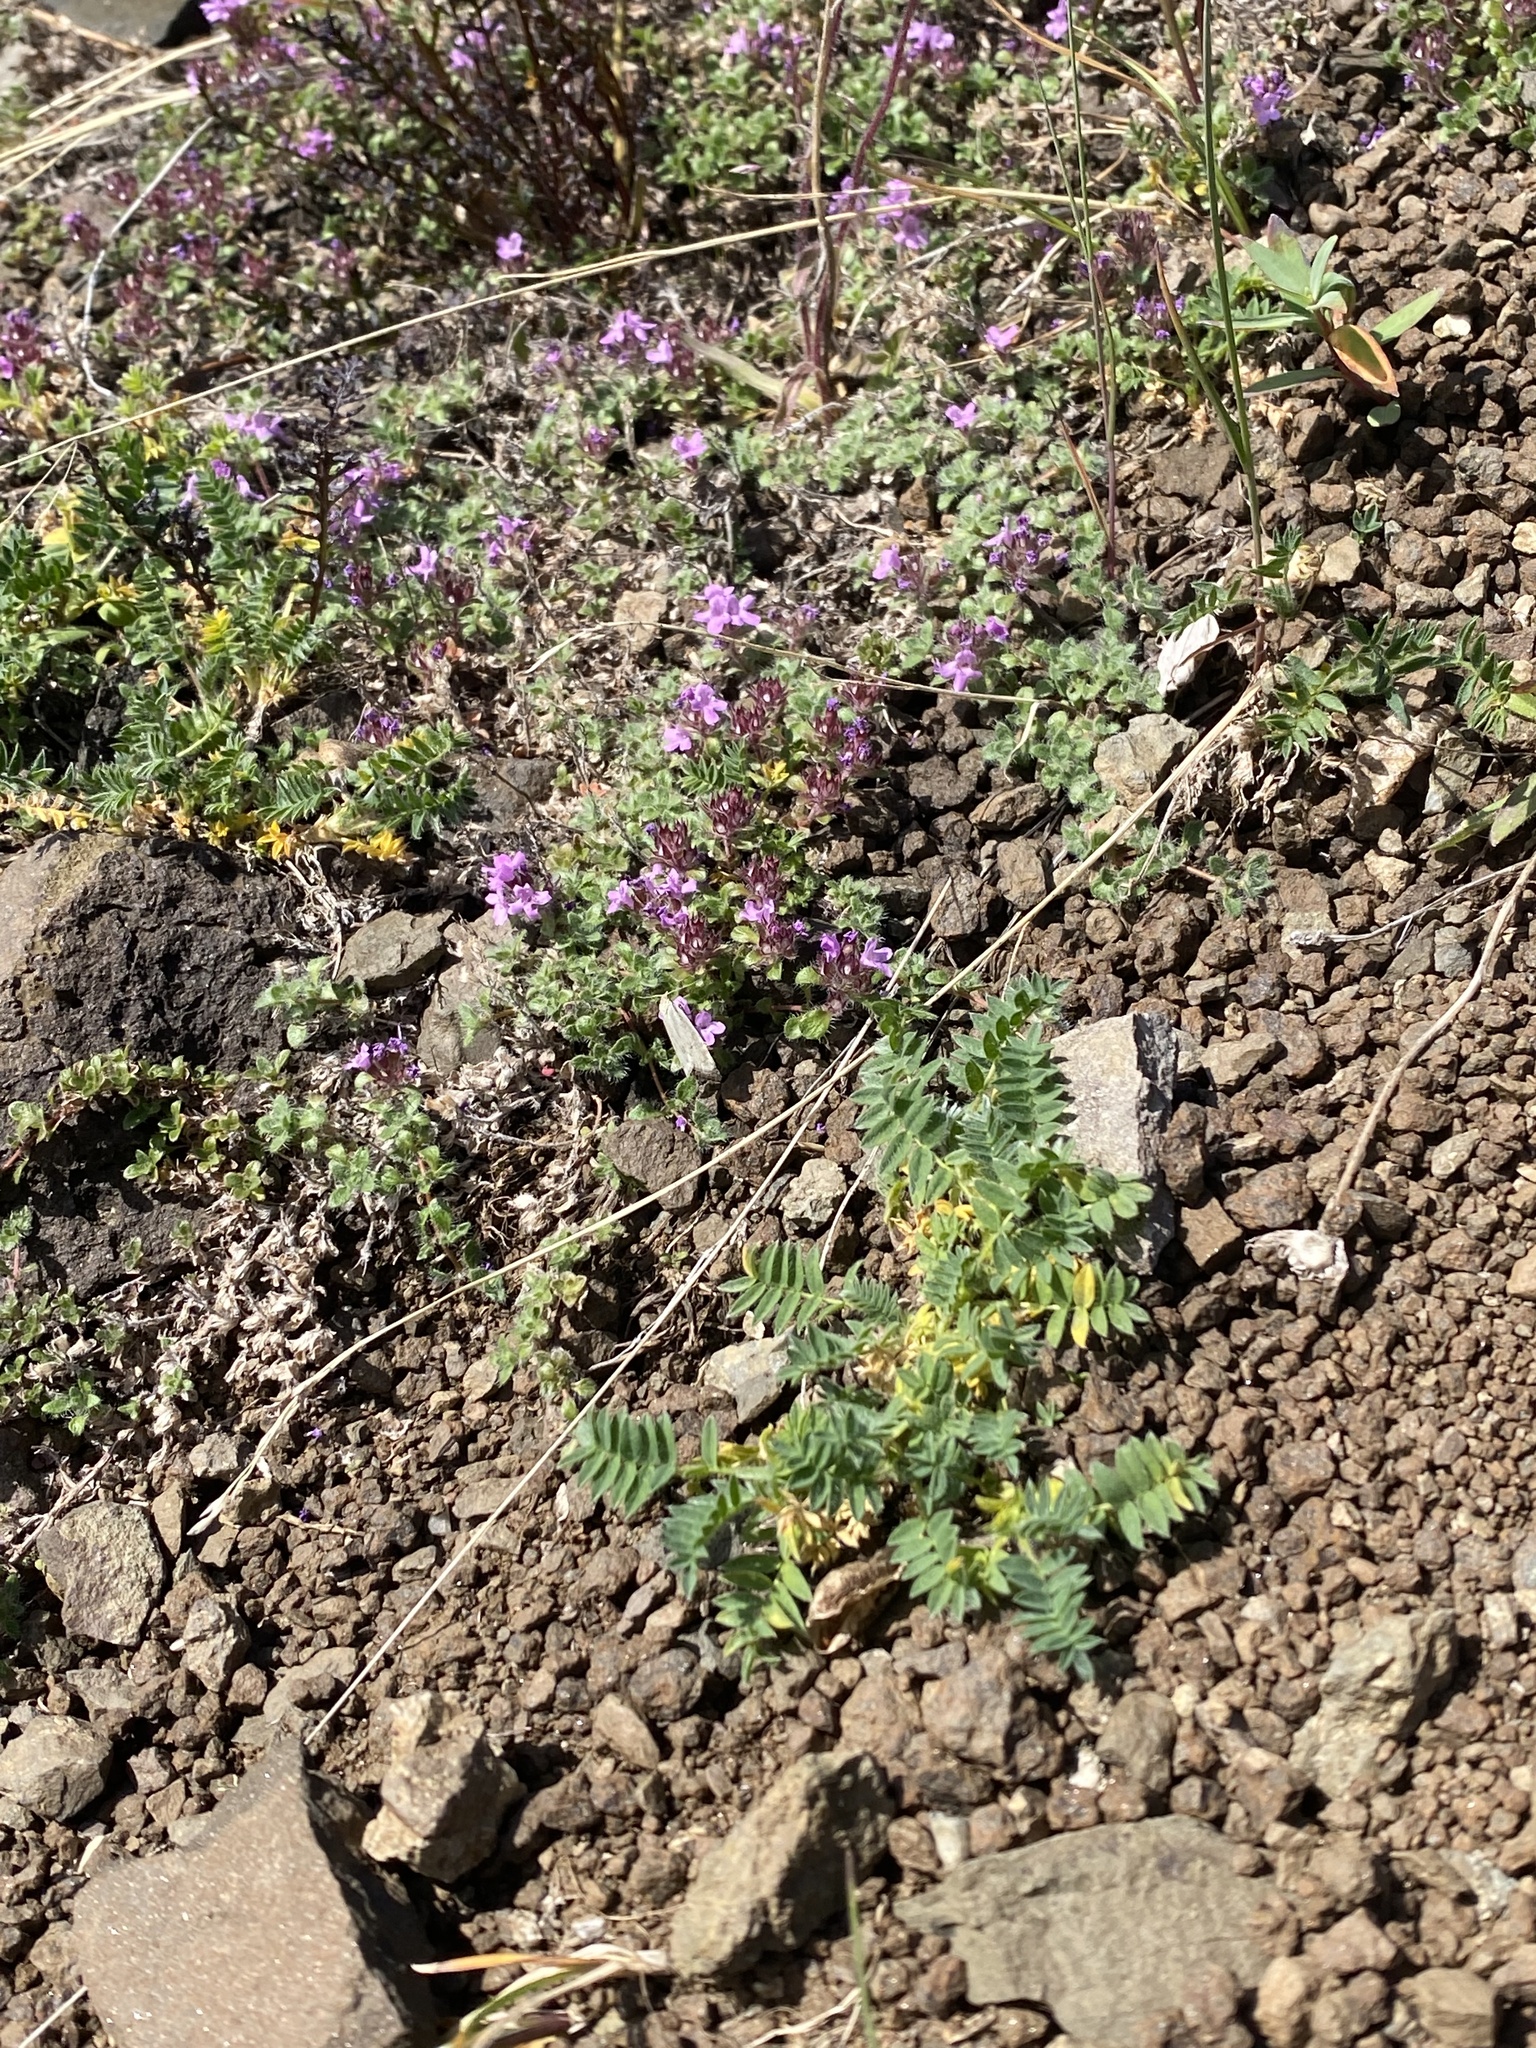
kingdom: Plantae
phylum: Tracheophyta
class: Magnoliopsida
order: Lamiales
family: Lamiaceae
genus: Thymus
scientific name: Thymus reverdattoanus
